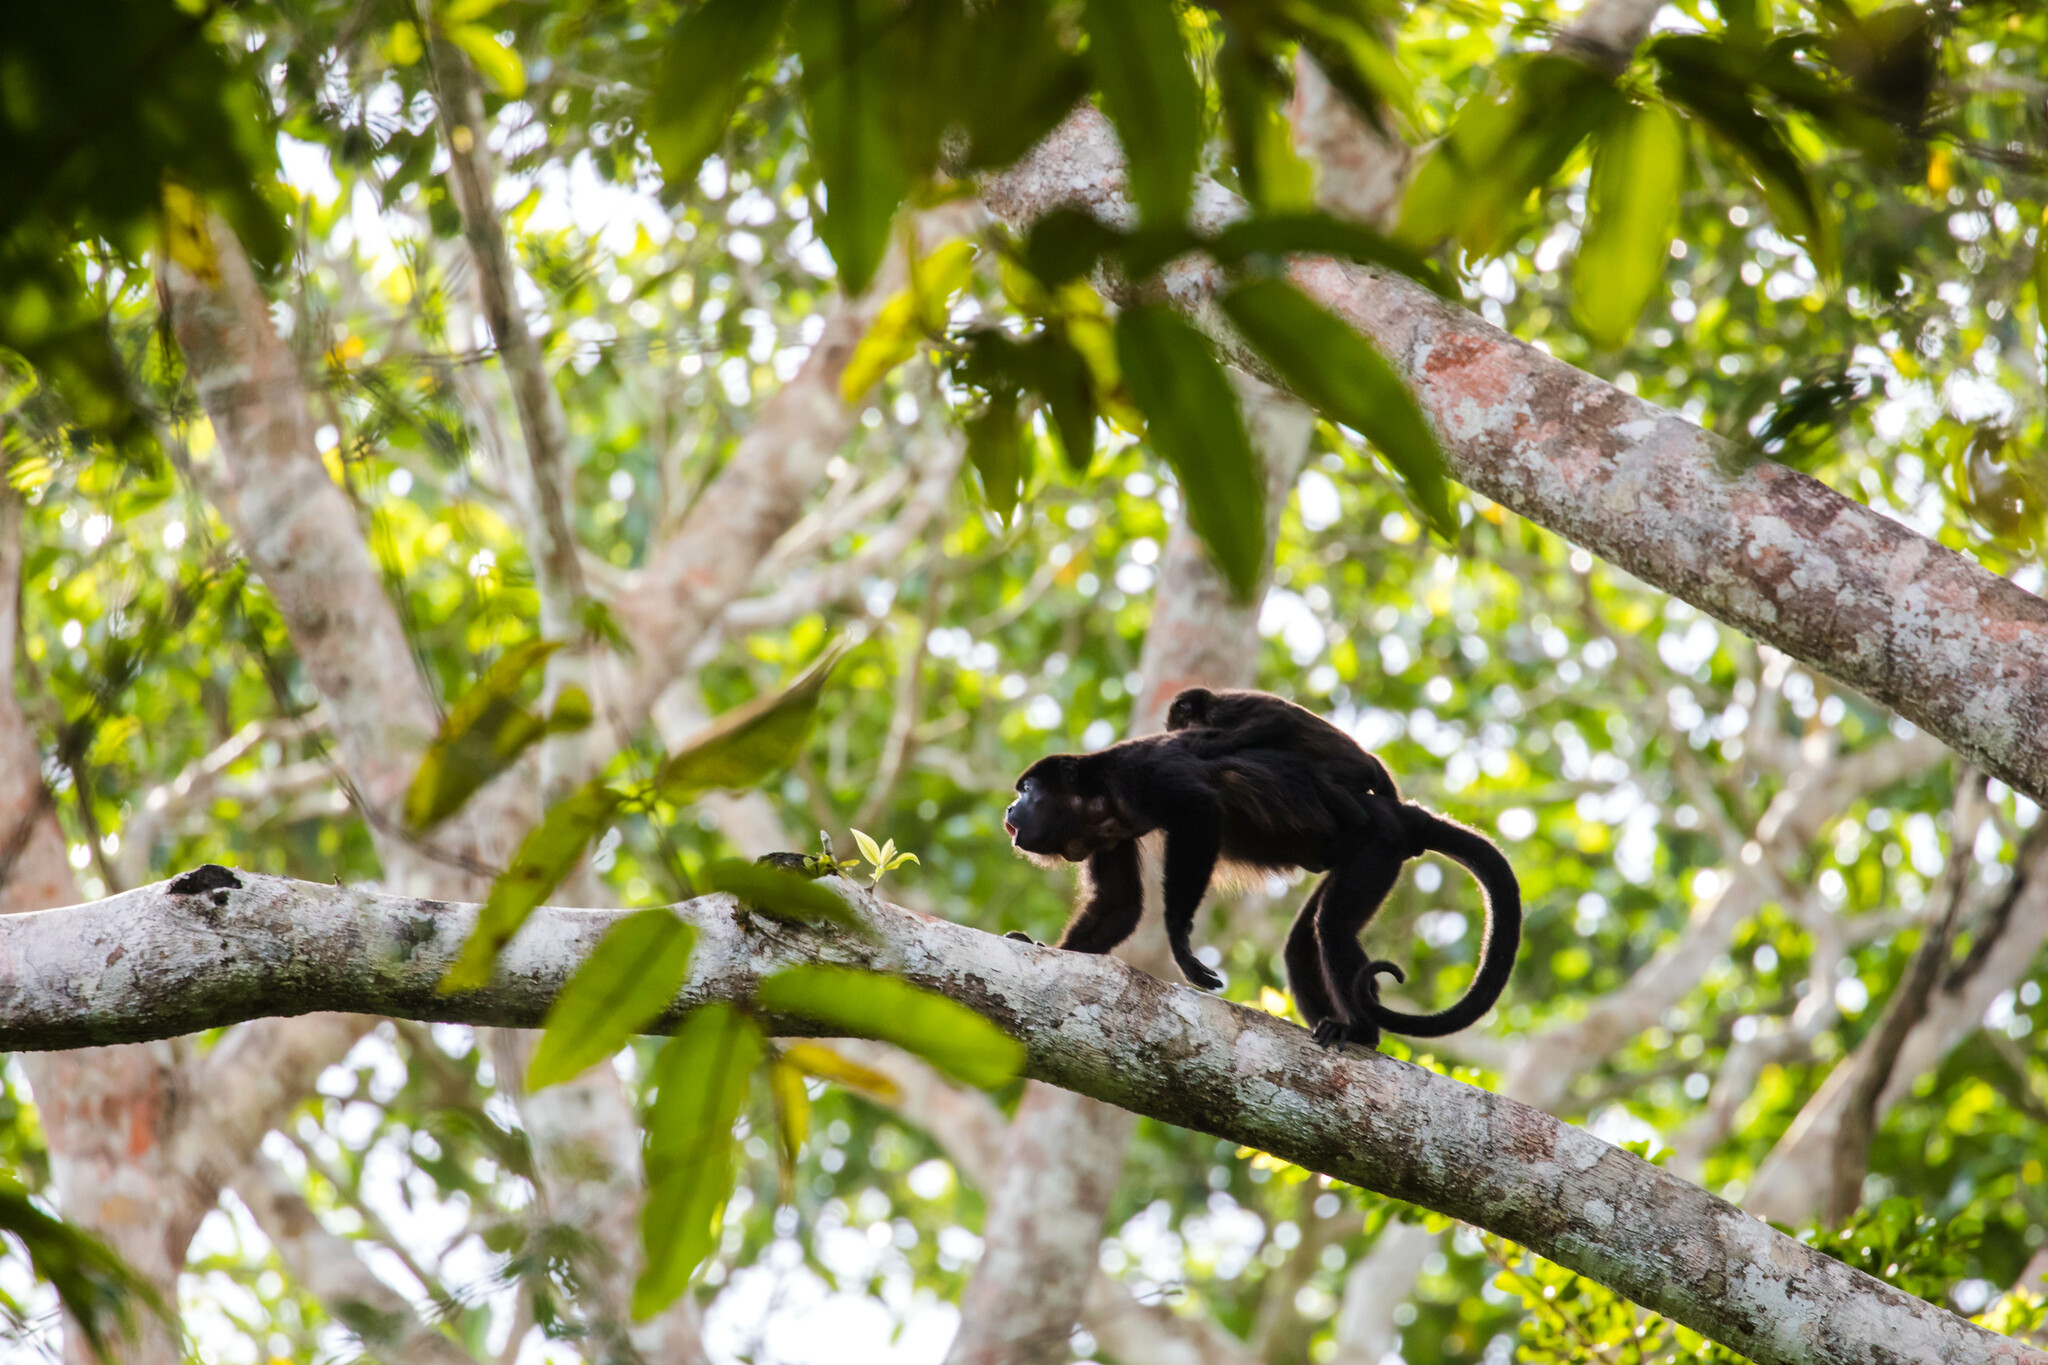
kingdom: Animalia
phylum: Chordata
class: Mammalia
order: Primates
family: Atelidae
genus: Alouatta
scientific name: Alouatta palliata
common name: Mantled howler
